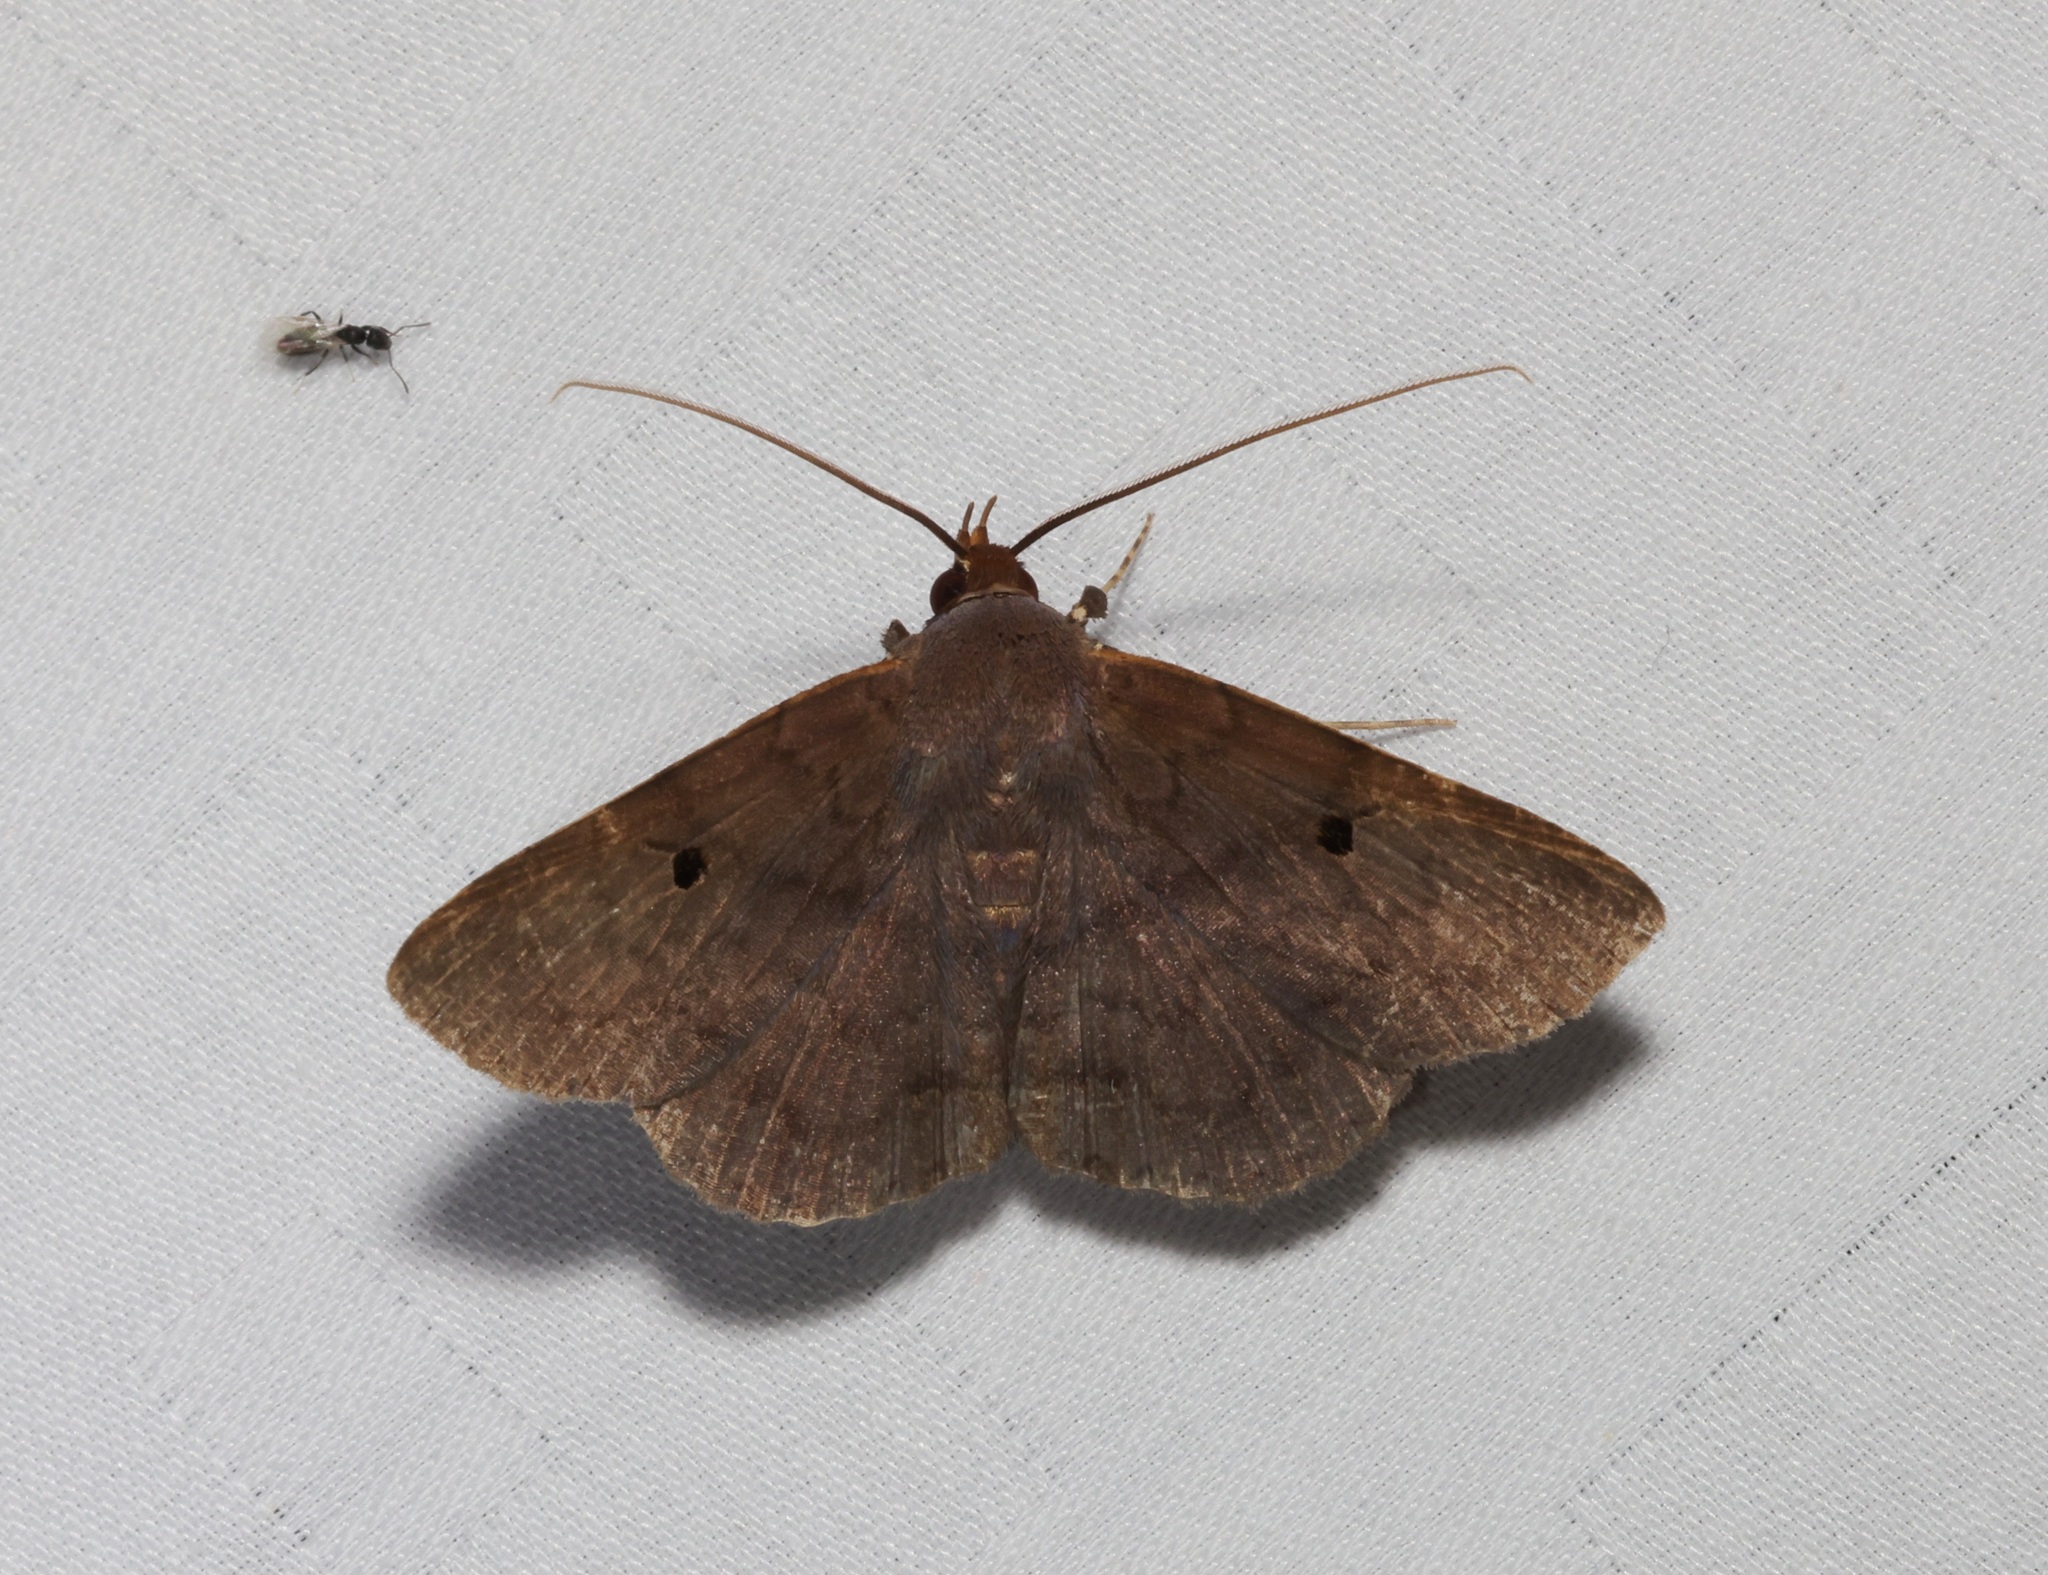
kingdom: Animalia
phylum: Arthropoda
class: Insecta
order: Lepidoptera
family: Erebidae
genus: Mecodina
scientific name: Mecodina bisignata
